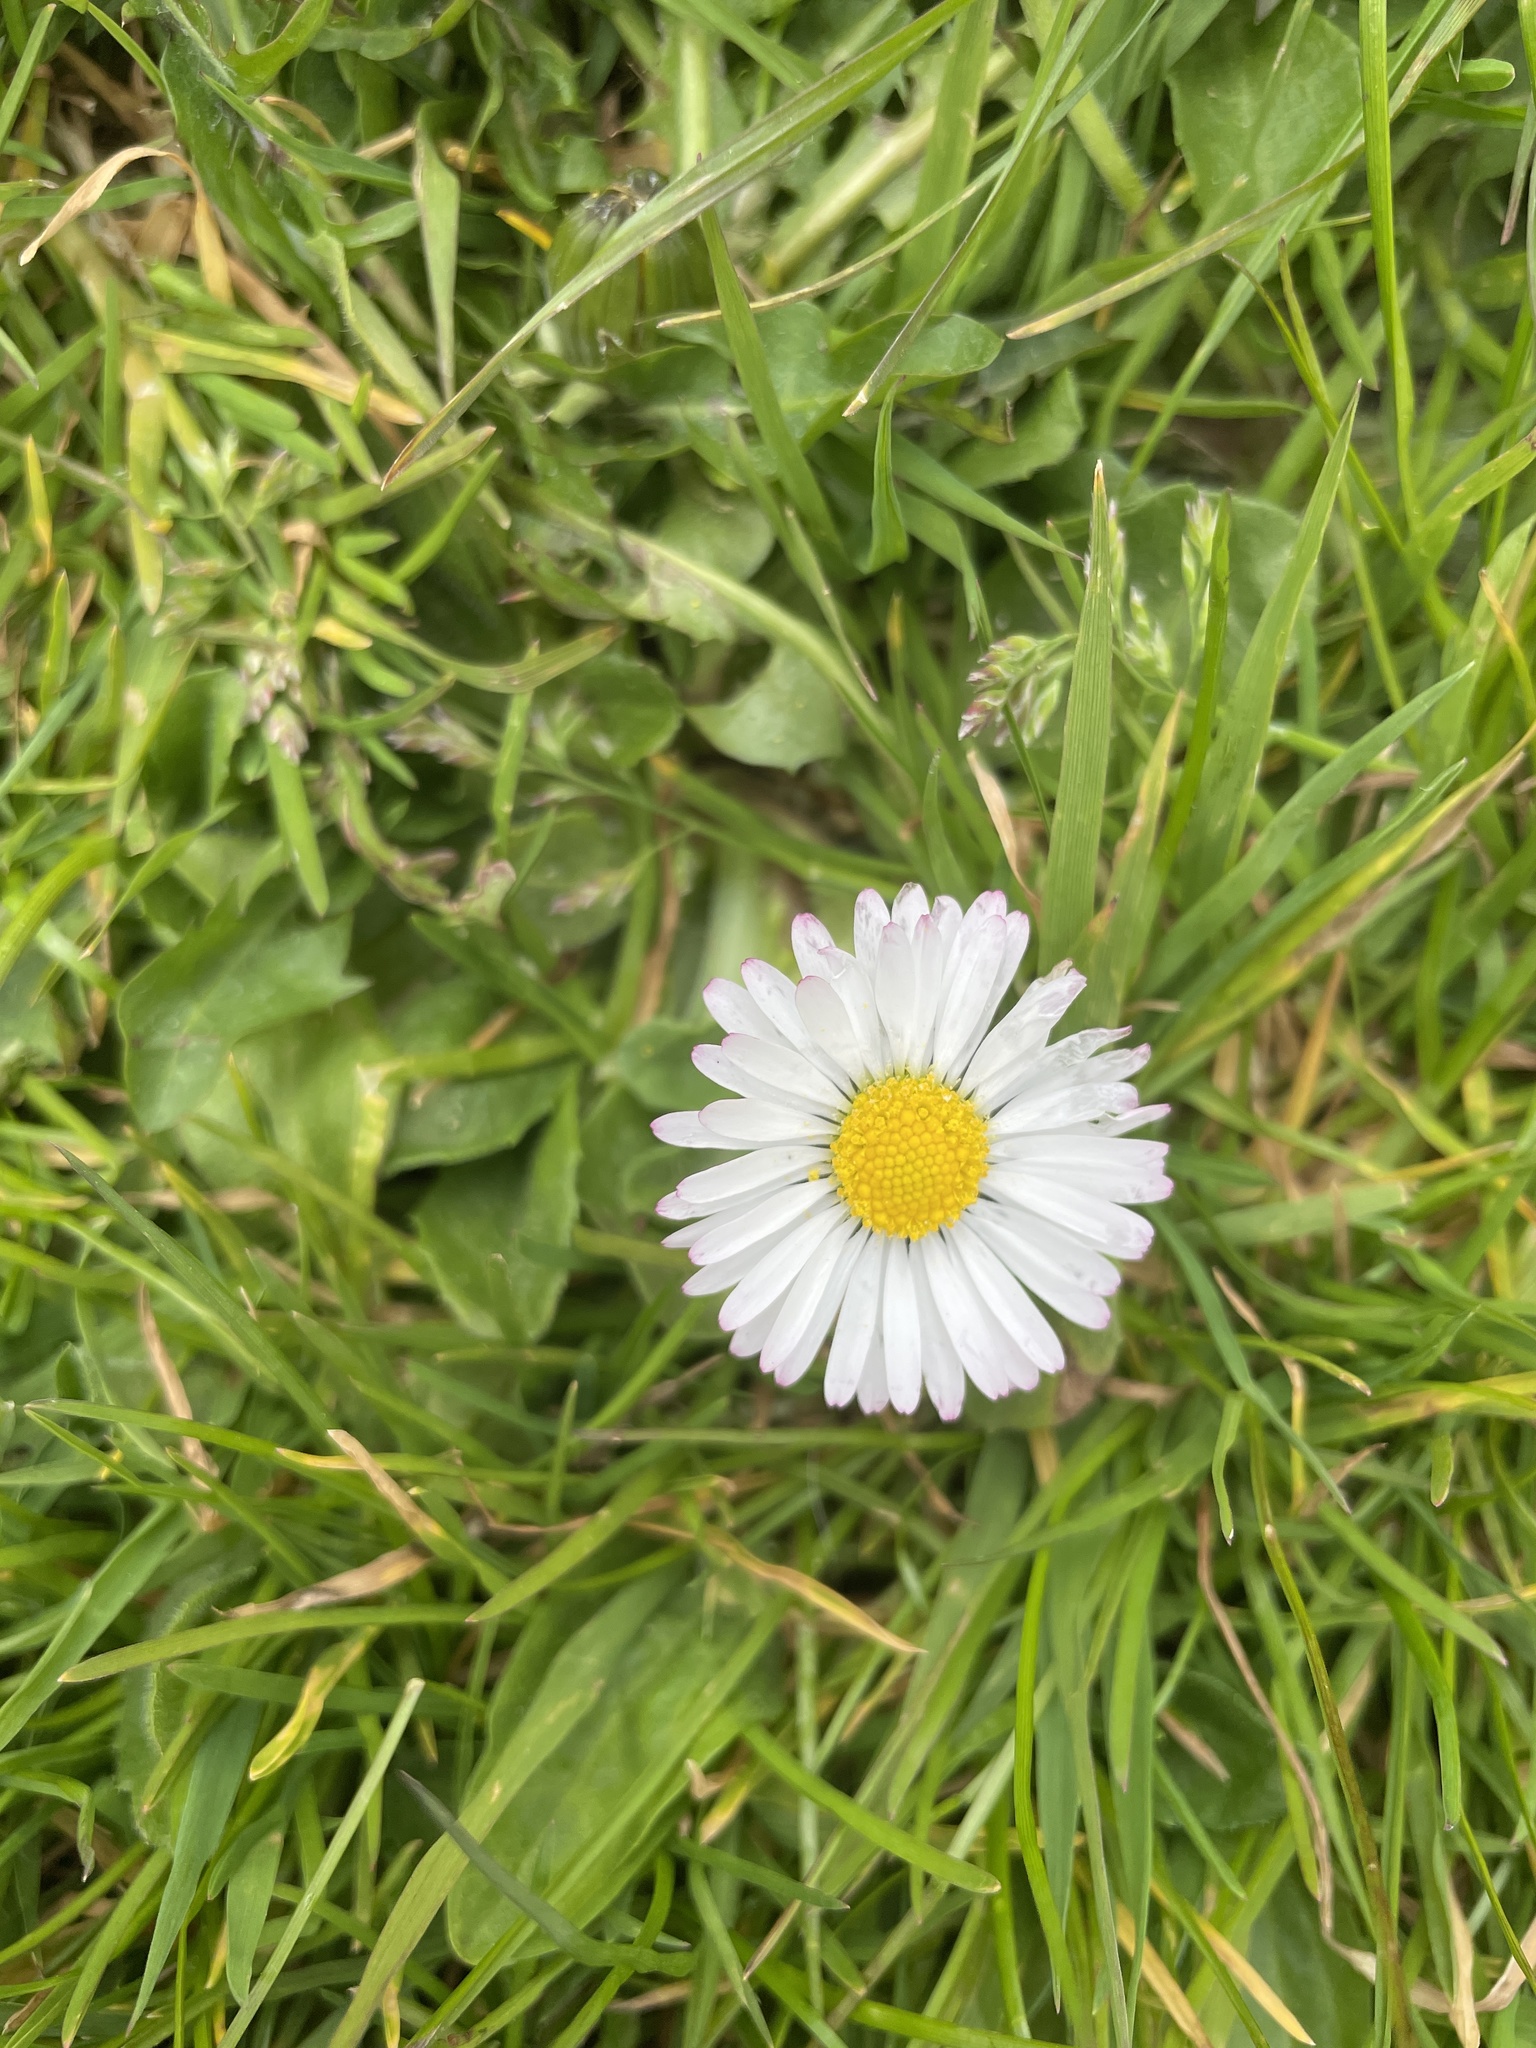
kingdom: Plantae
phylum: Tracheophyta
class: Magnoliopsida
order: Asterales
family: Asteraceae
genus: Bellis
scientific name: Bellis perennis
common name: Lawndaisy
